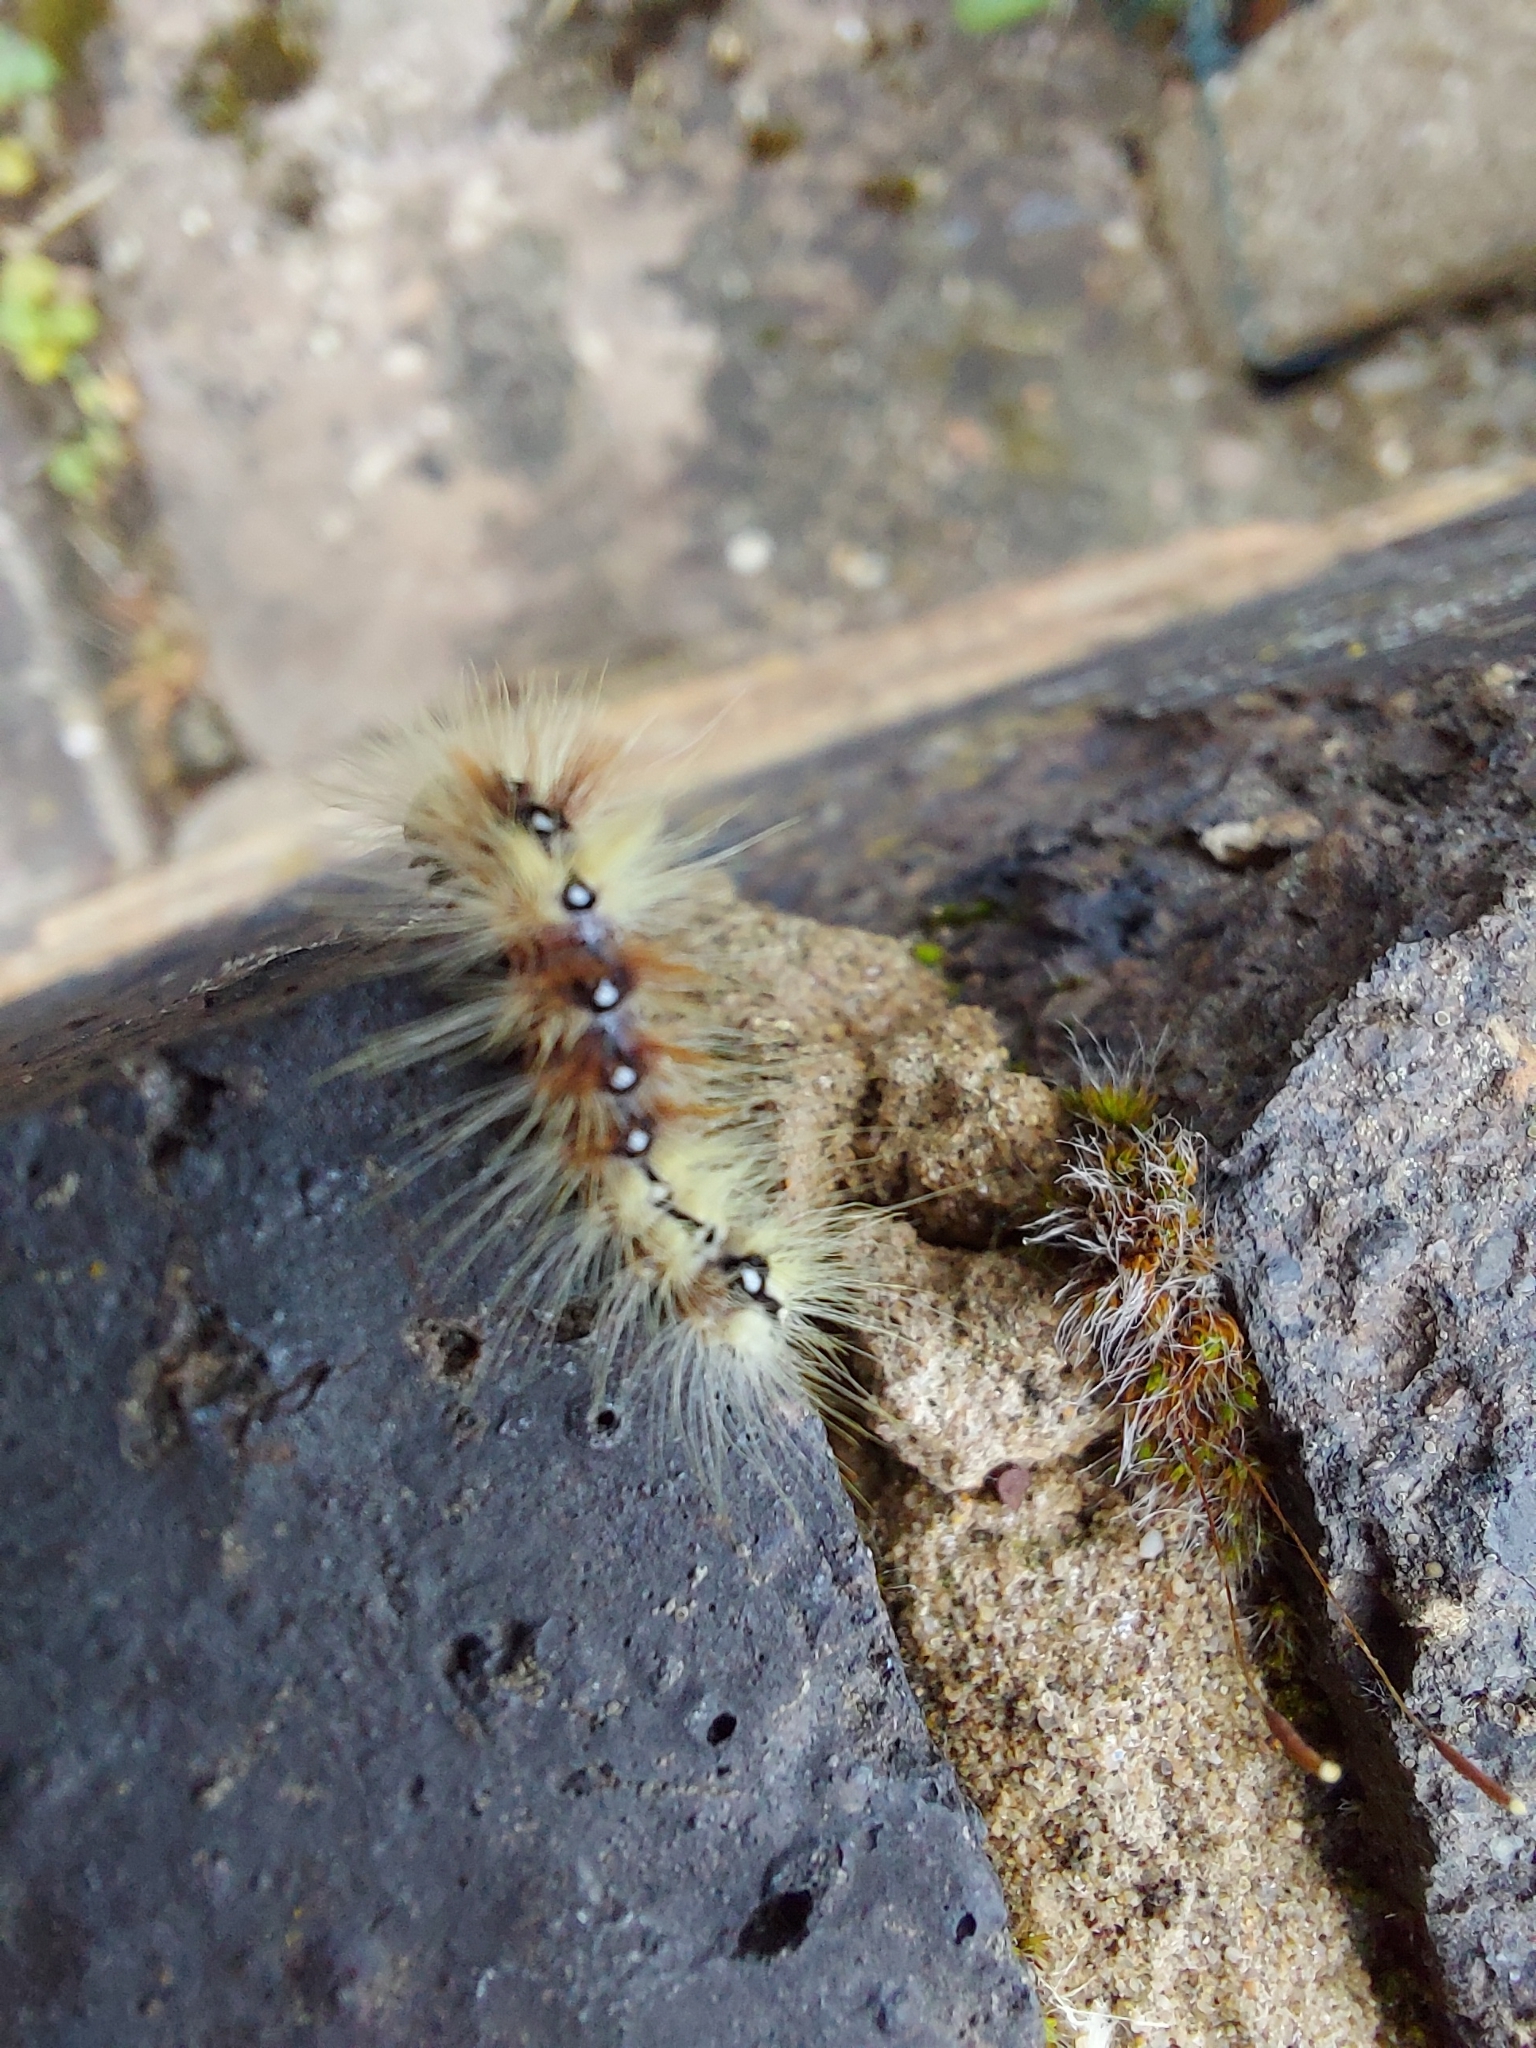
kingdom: Animalia
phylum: Arthropoda
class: Insecta
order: Lepidoptera
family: Noctuidae
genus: Acronicta
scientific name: Acronicta aceris
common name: Sycamore
